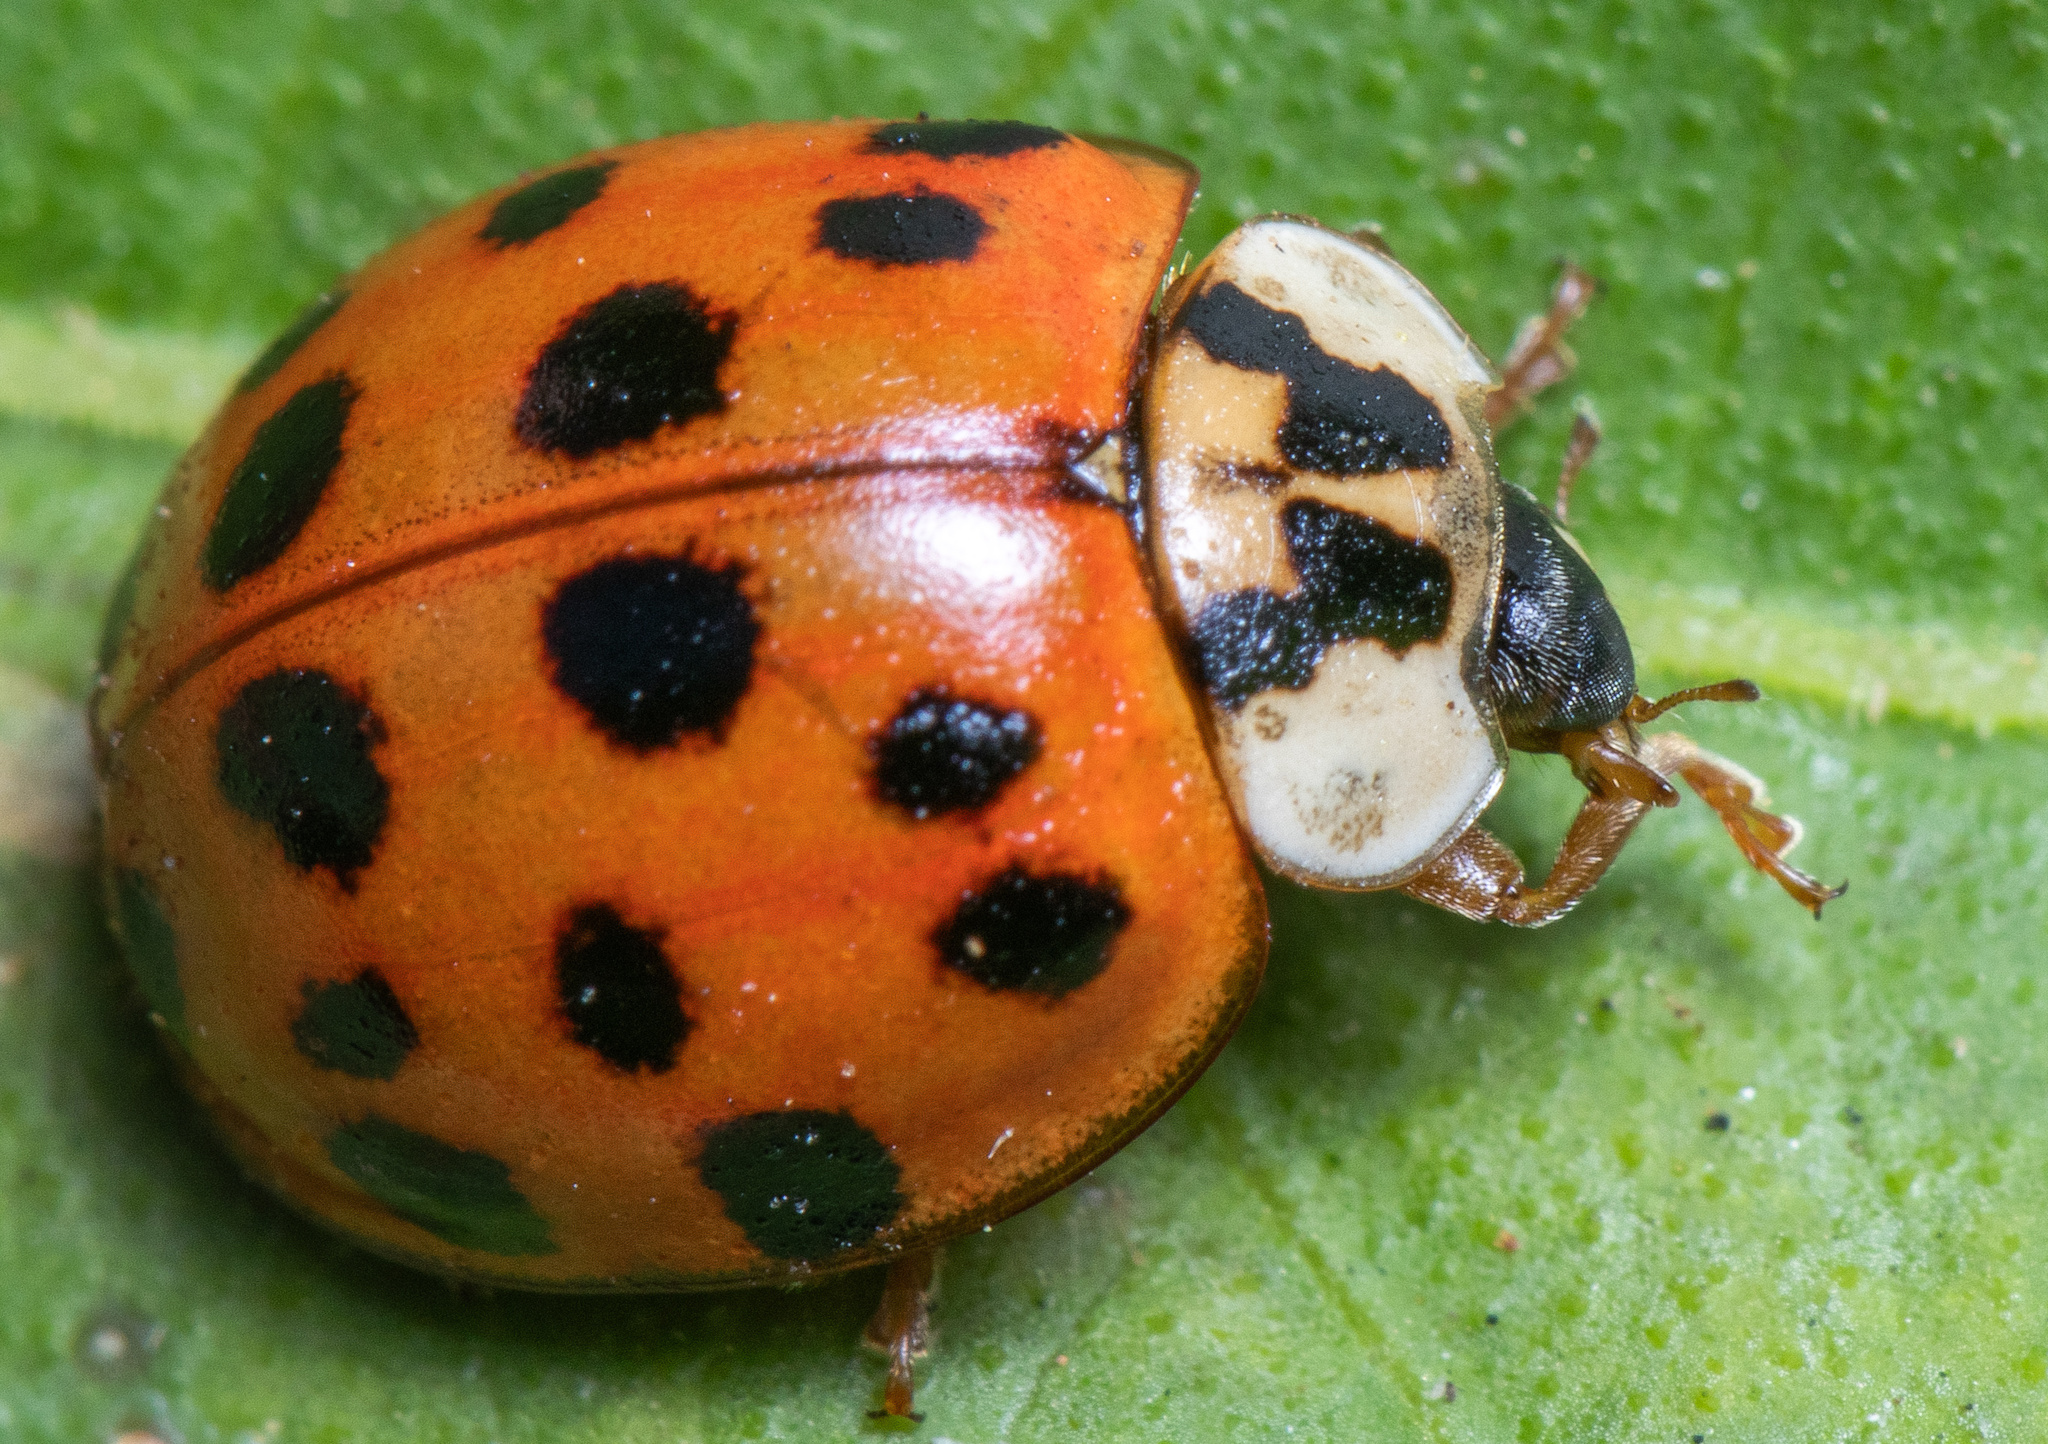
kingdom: Animalia
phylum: Arthropoda
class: Insecta
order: Coleoptera
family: Coccinellidae
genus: Harmonia
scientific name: Harmonia axyridis
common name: Harlequin ladybird
